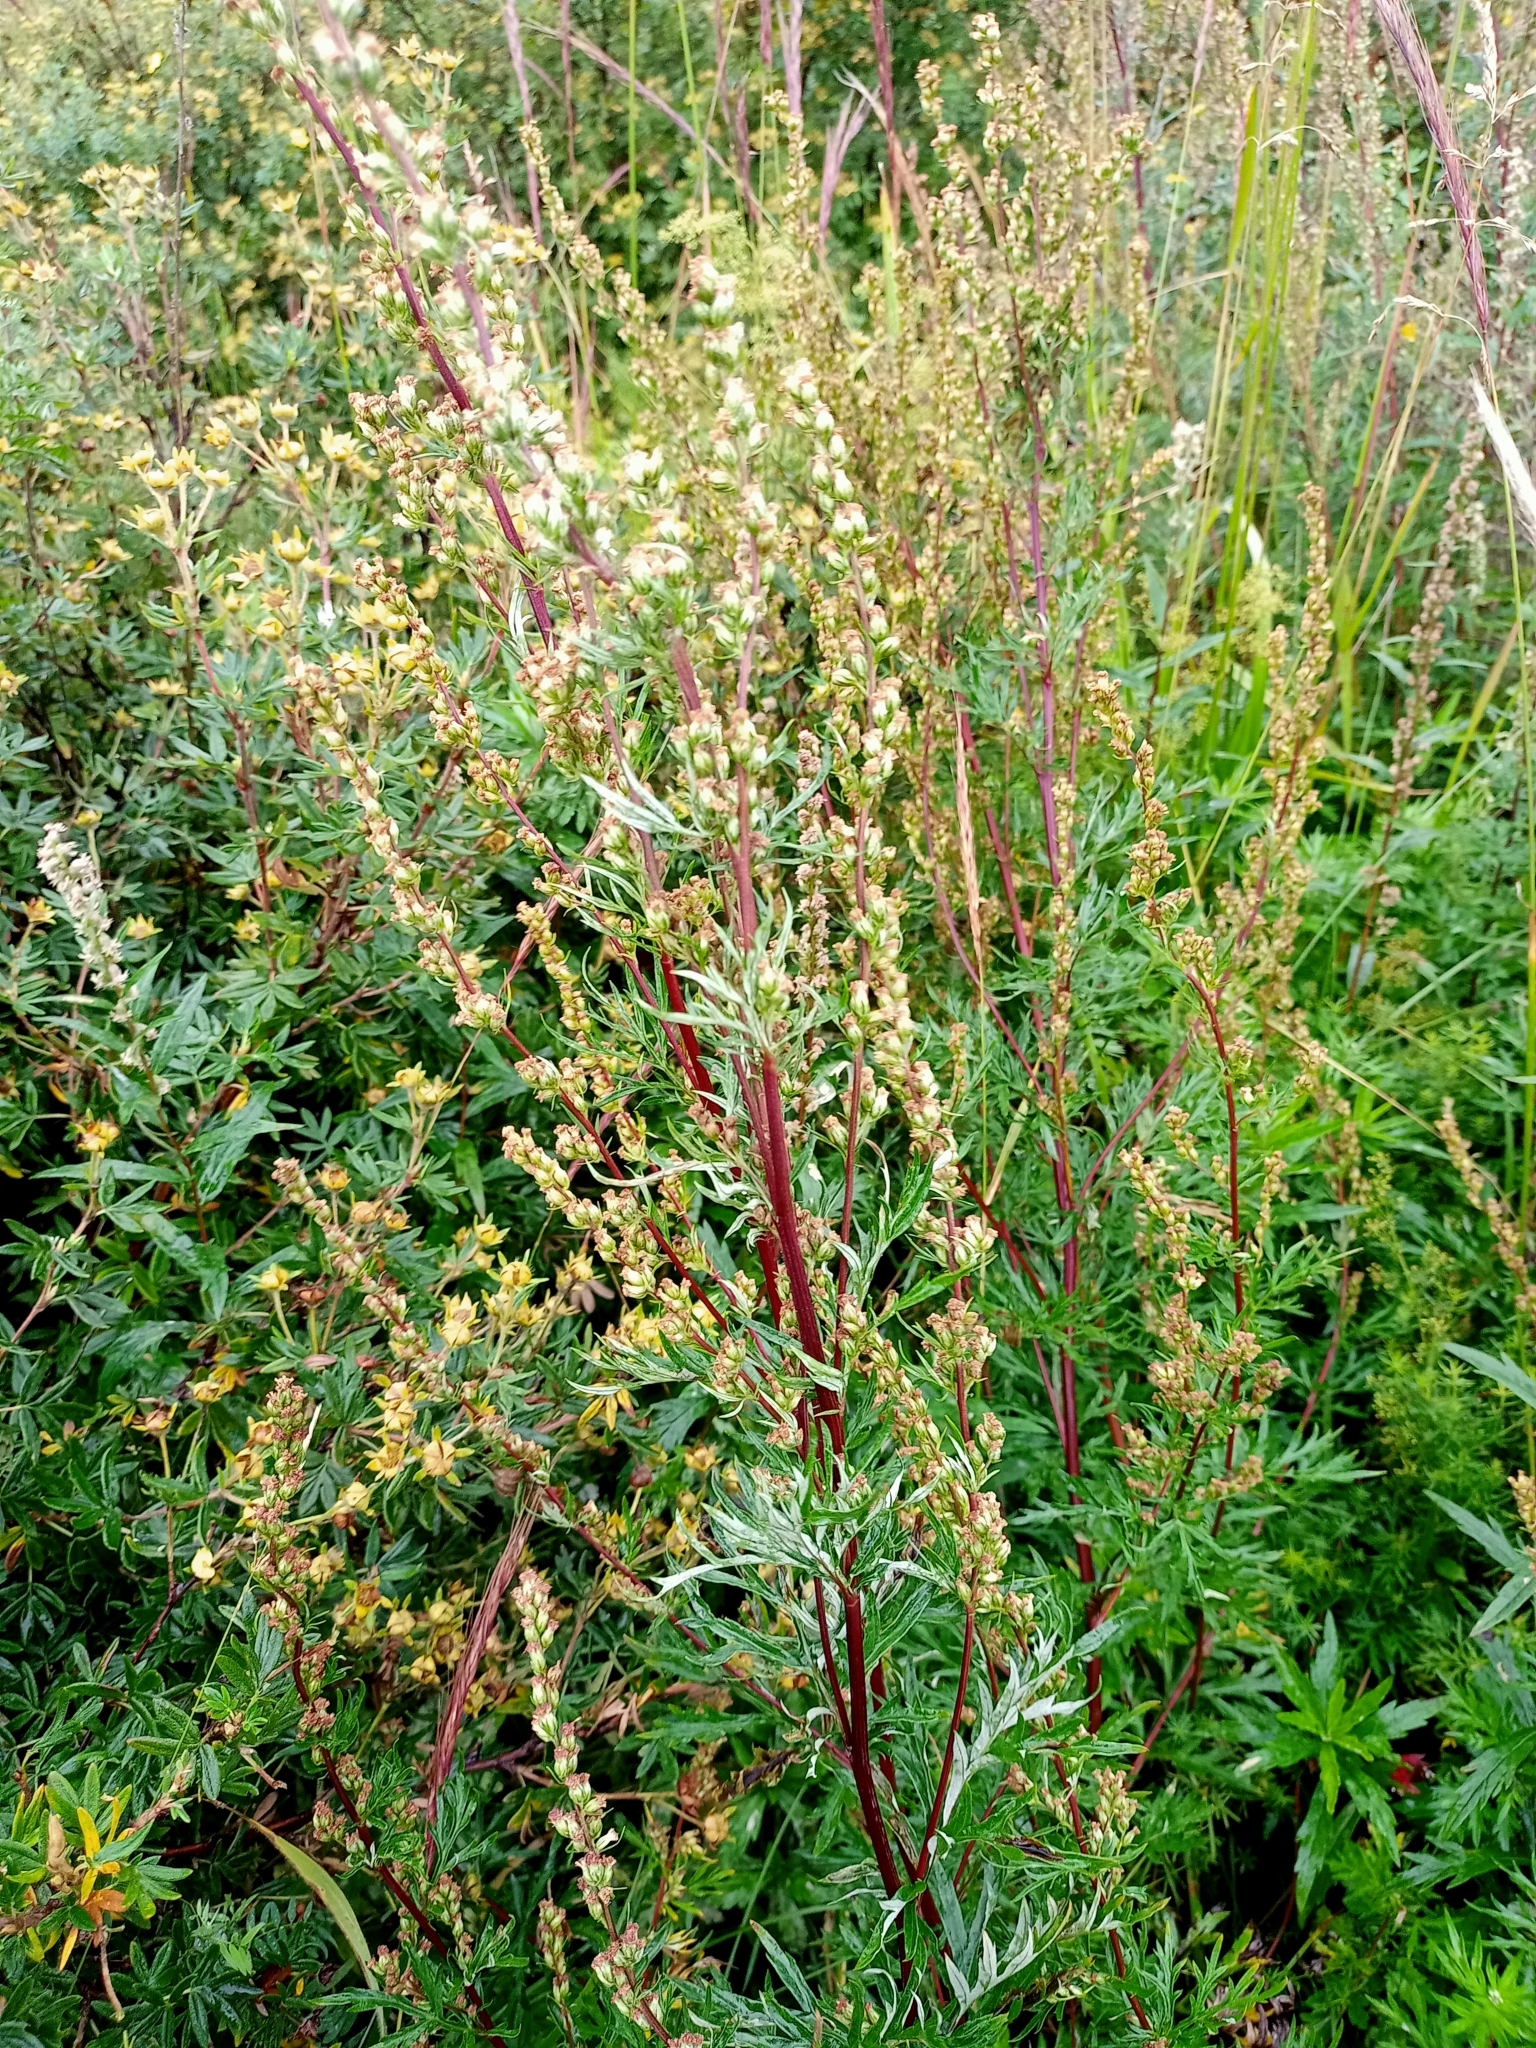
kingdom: Plantae
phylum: Tracheophyta
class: Magnoliopsida
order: Asterales
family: Asteraceae
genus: Artemisia
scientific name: Artemisia vulgaris
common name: Mugwort
